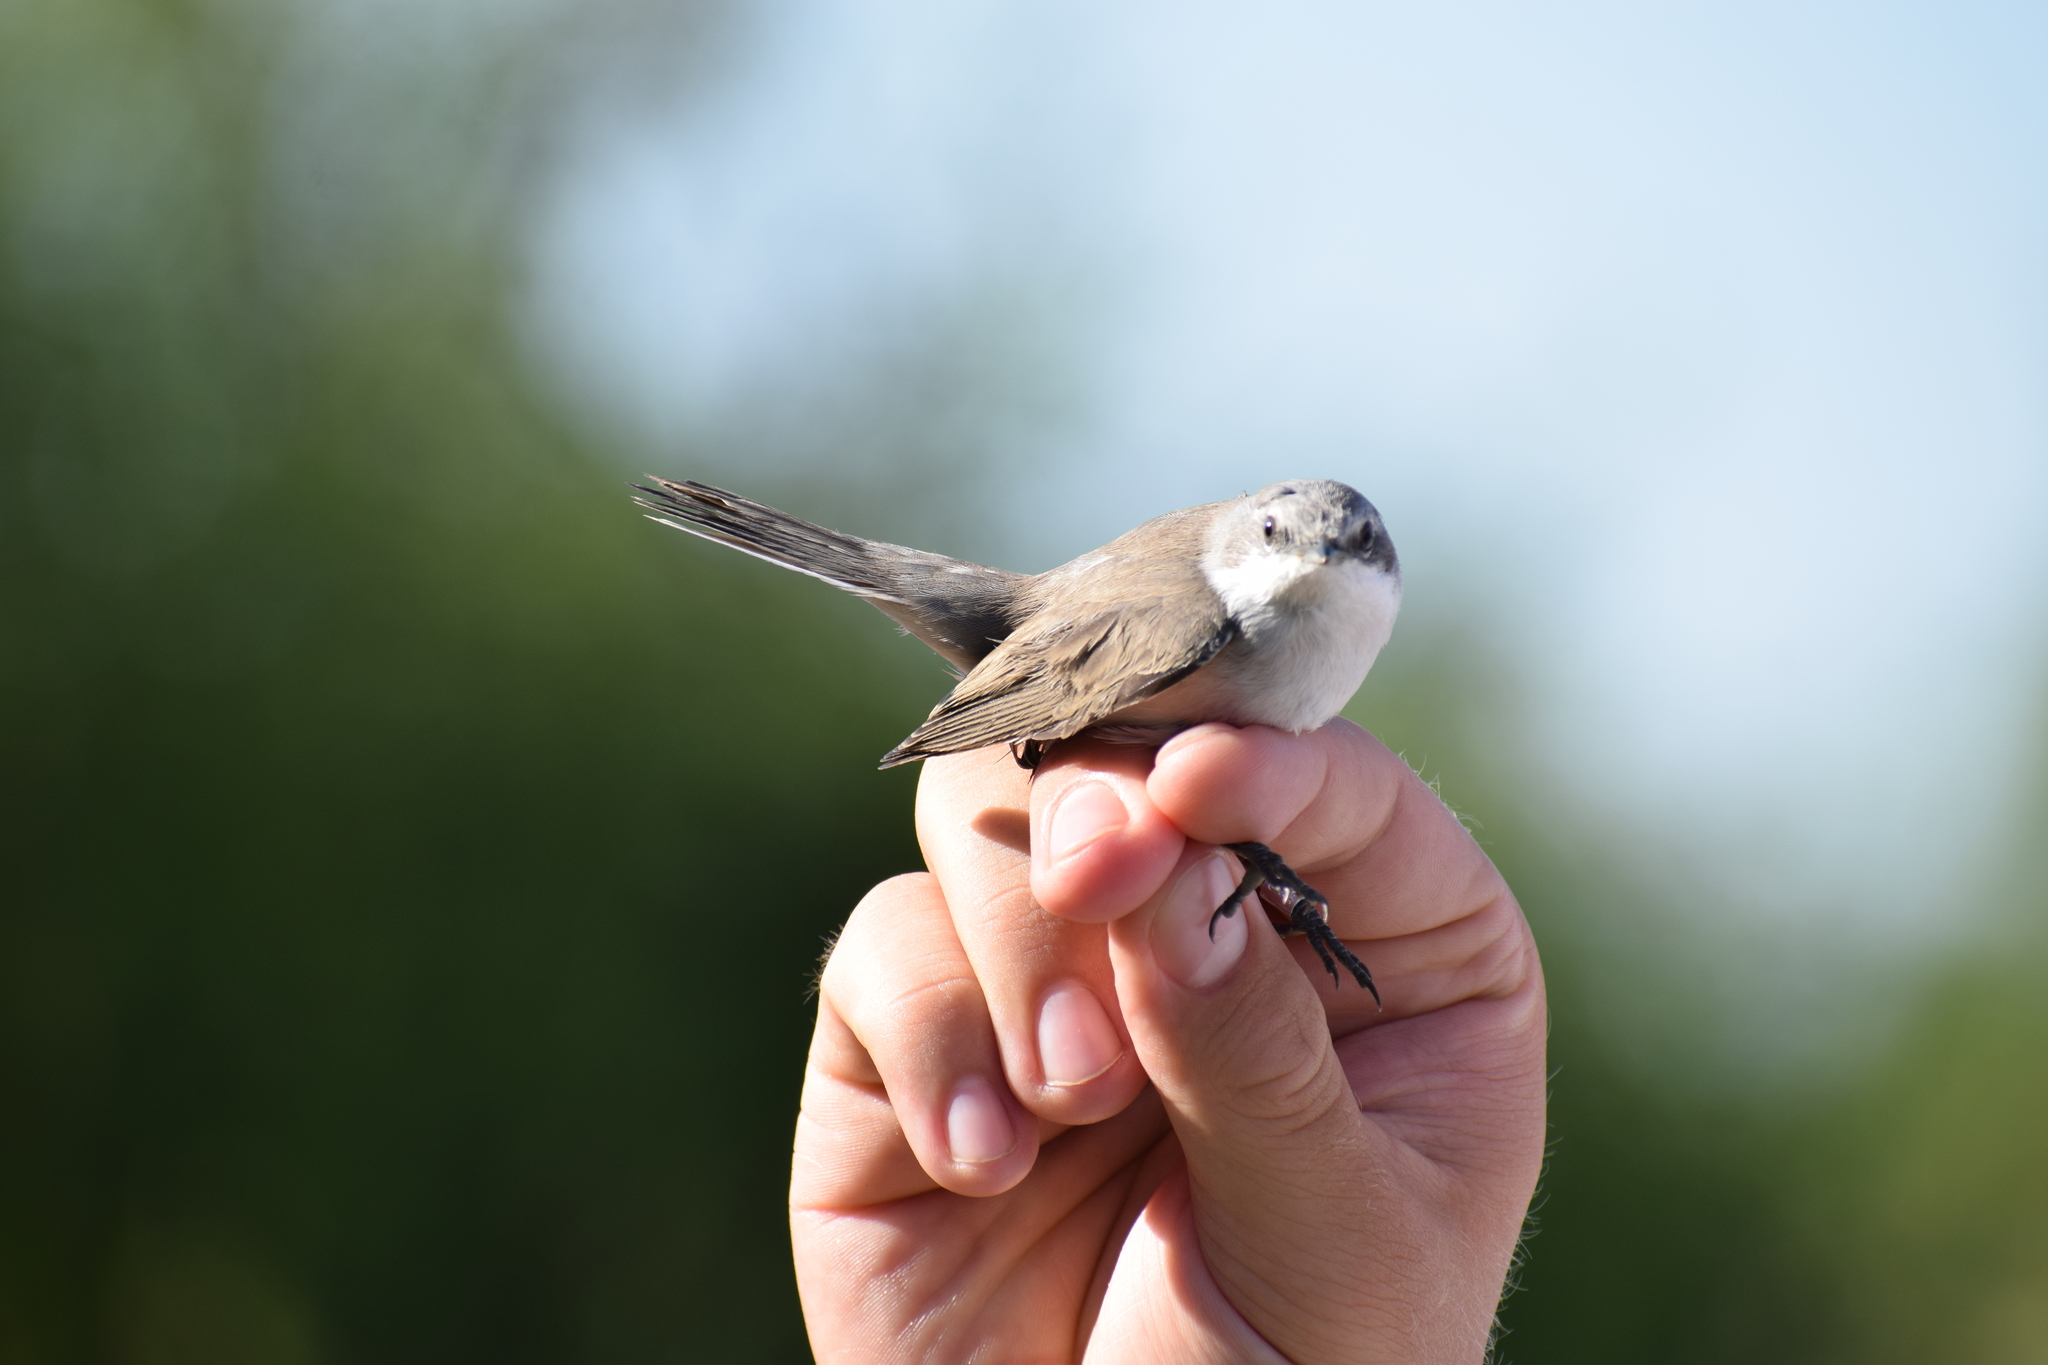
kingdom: Animalia
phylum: Chordata
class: Aves
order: Passeriformes
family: Sylviidae
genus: Sylvia
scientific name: Sylvia curruca
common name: Lesser whitethroat
